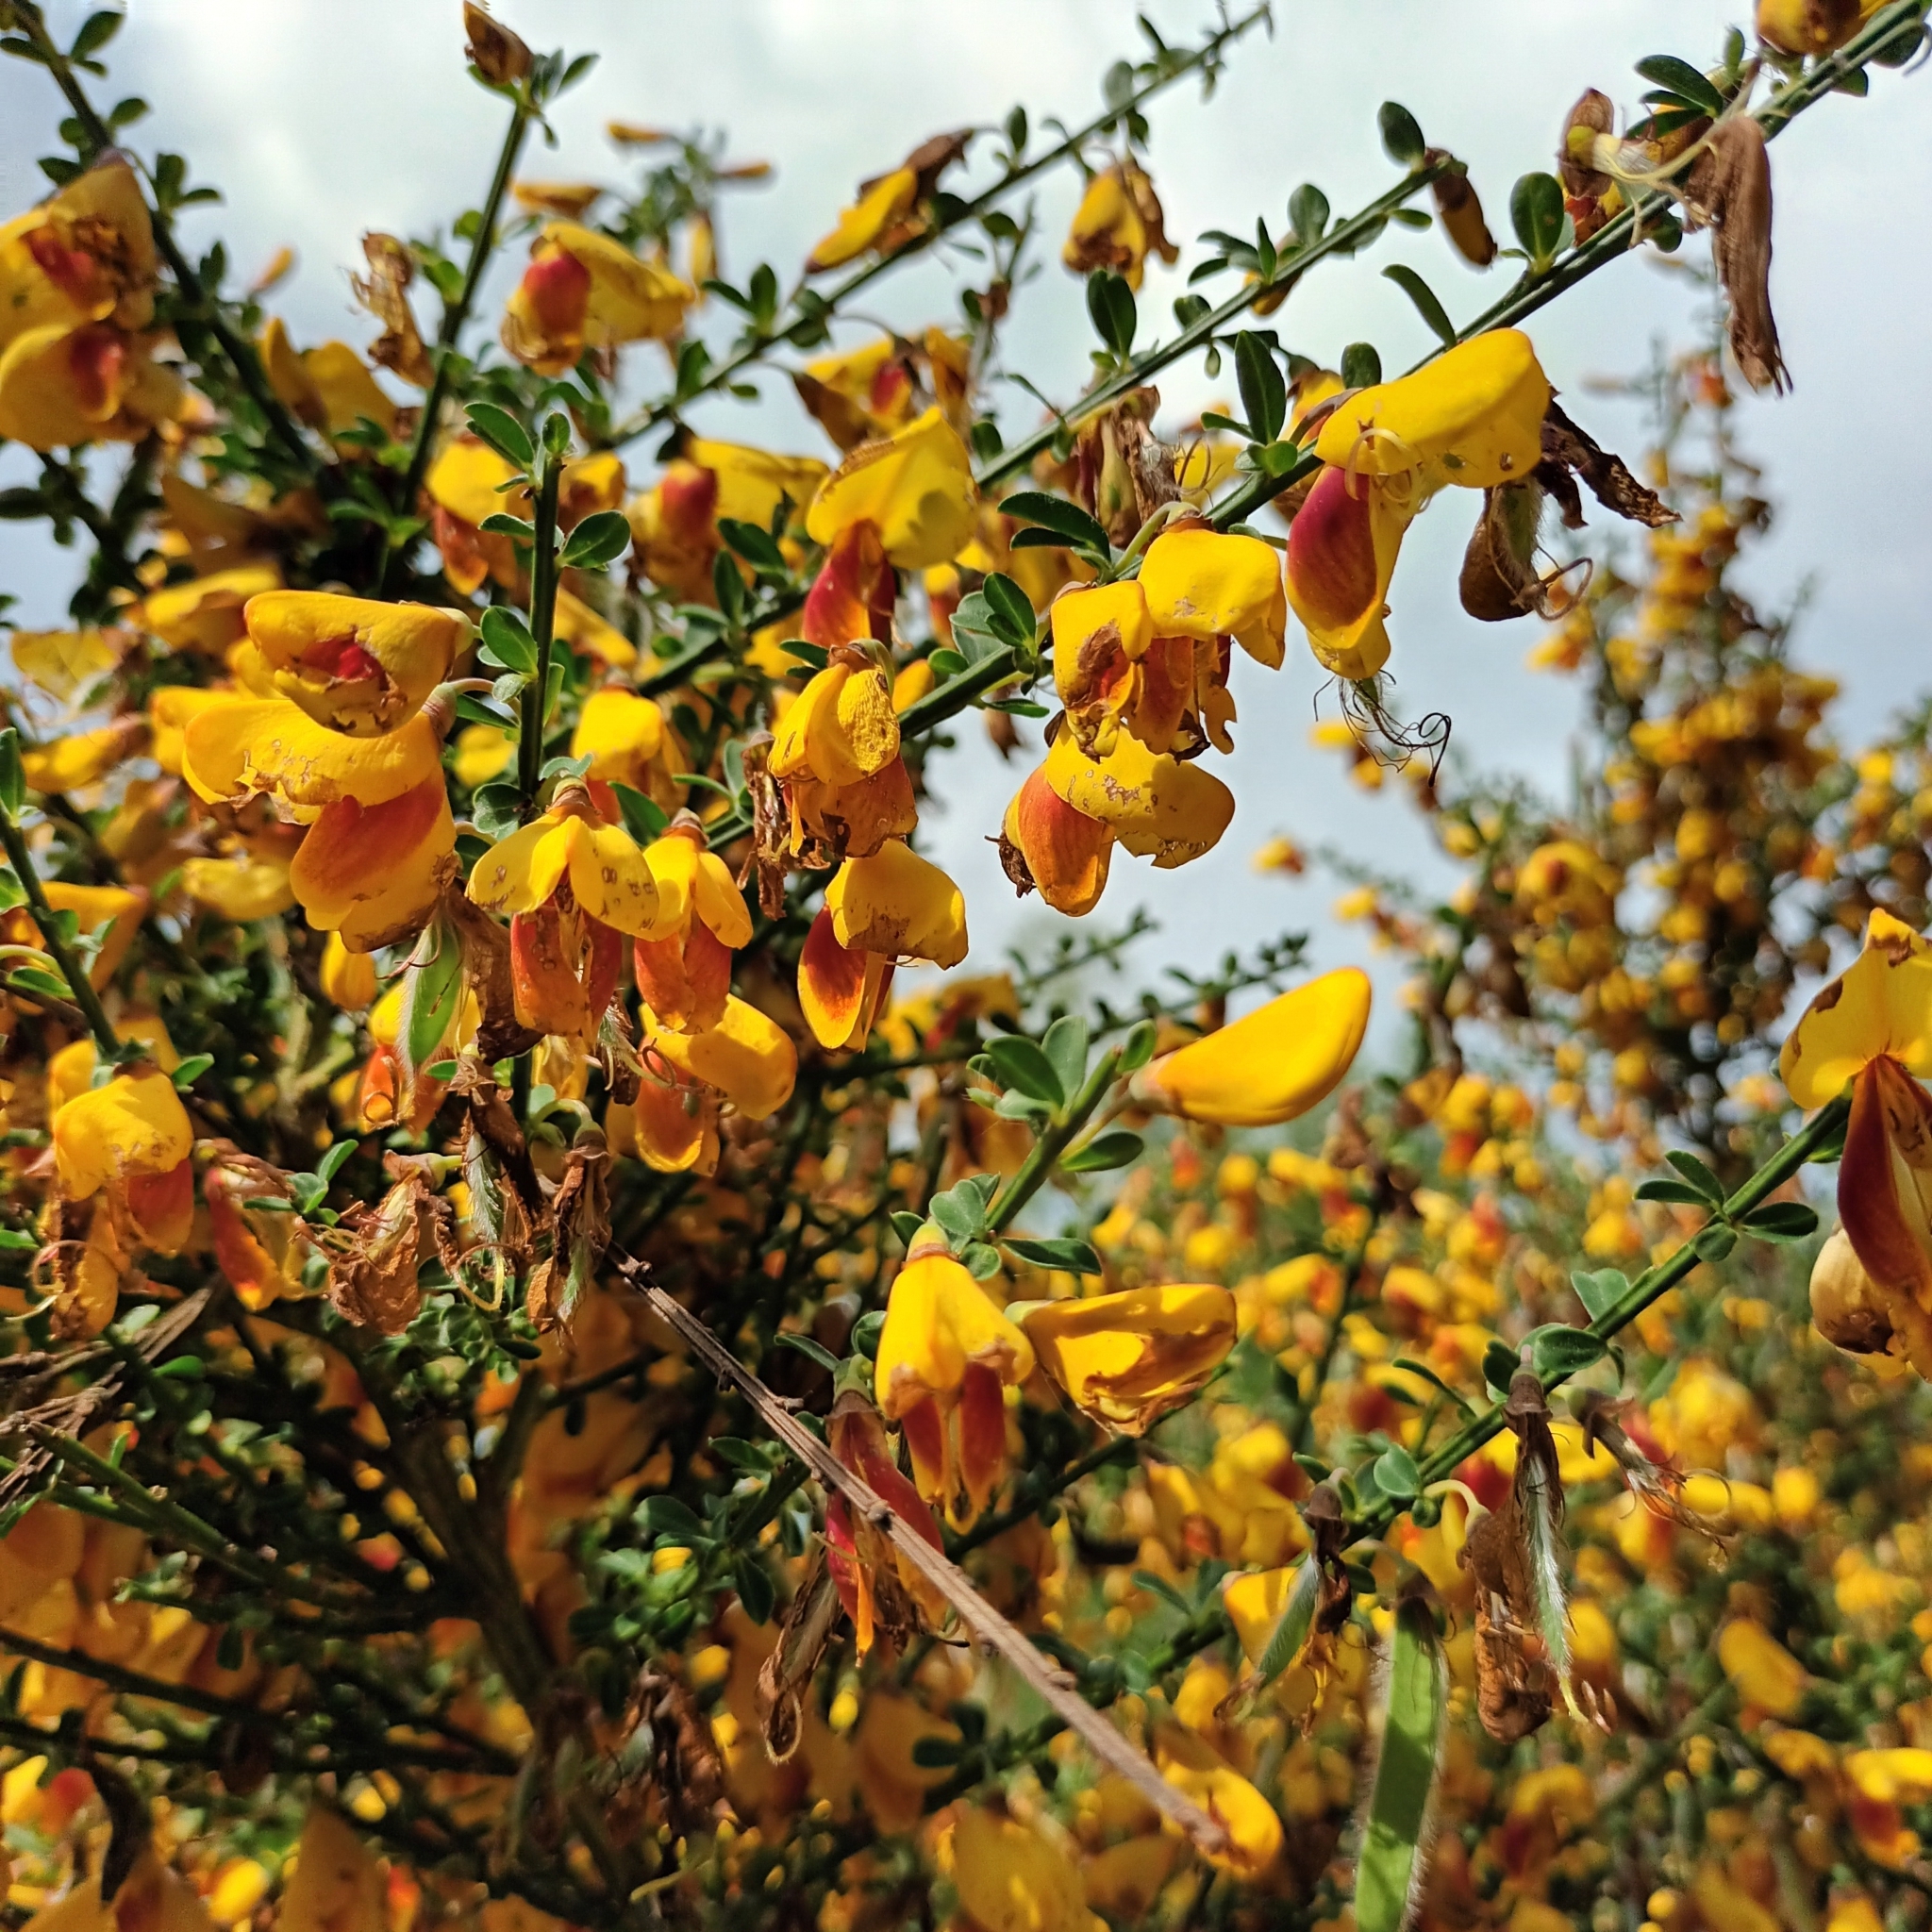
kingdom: Plantae
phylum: Tracheophyta
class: Magnoliopsida
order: Fabales
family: Fabaceae
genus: Cytisus
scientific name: Cytisus scoparius
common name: Scotch broom
